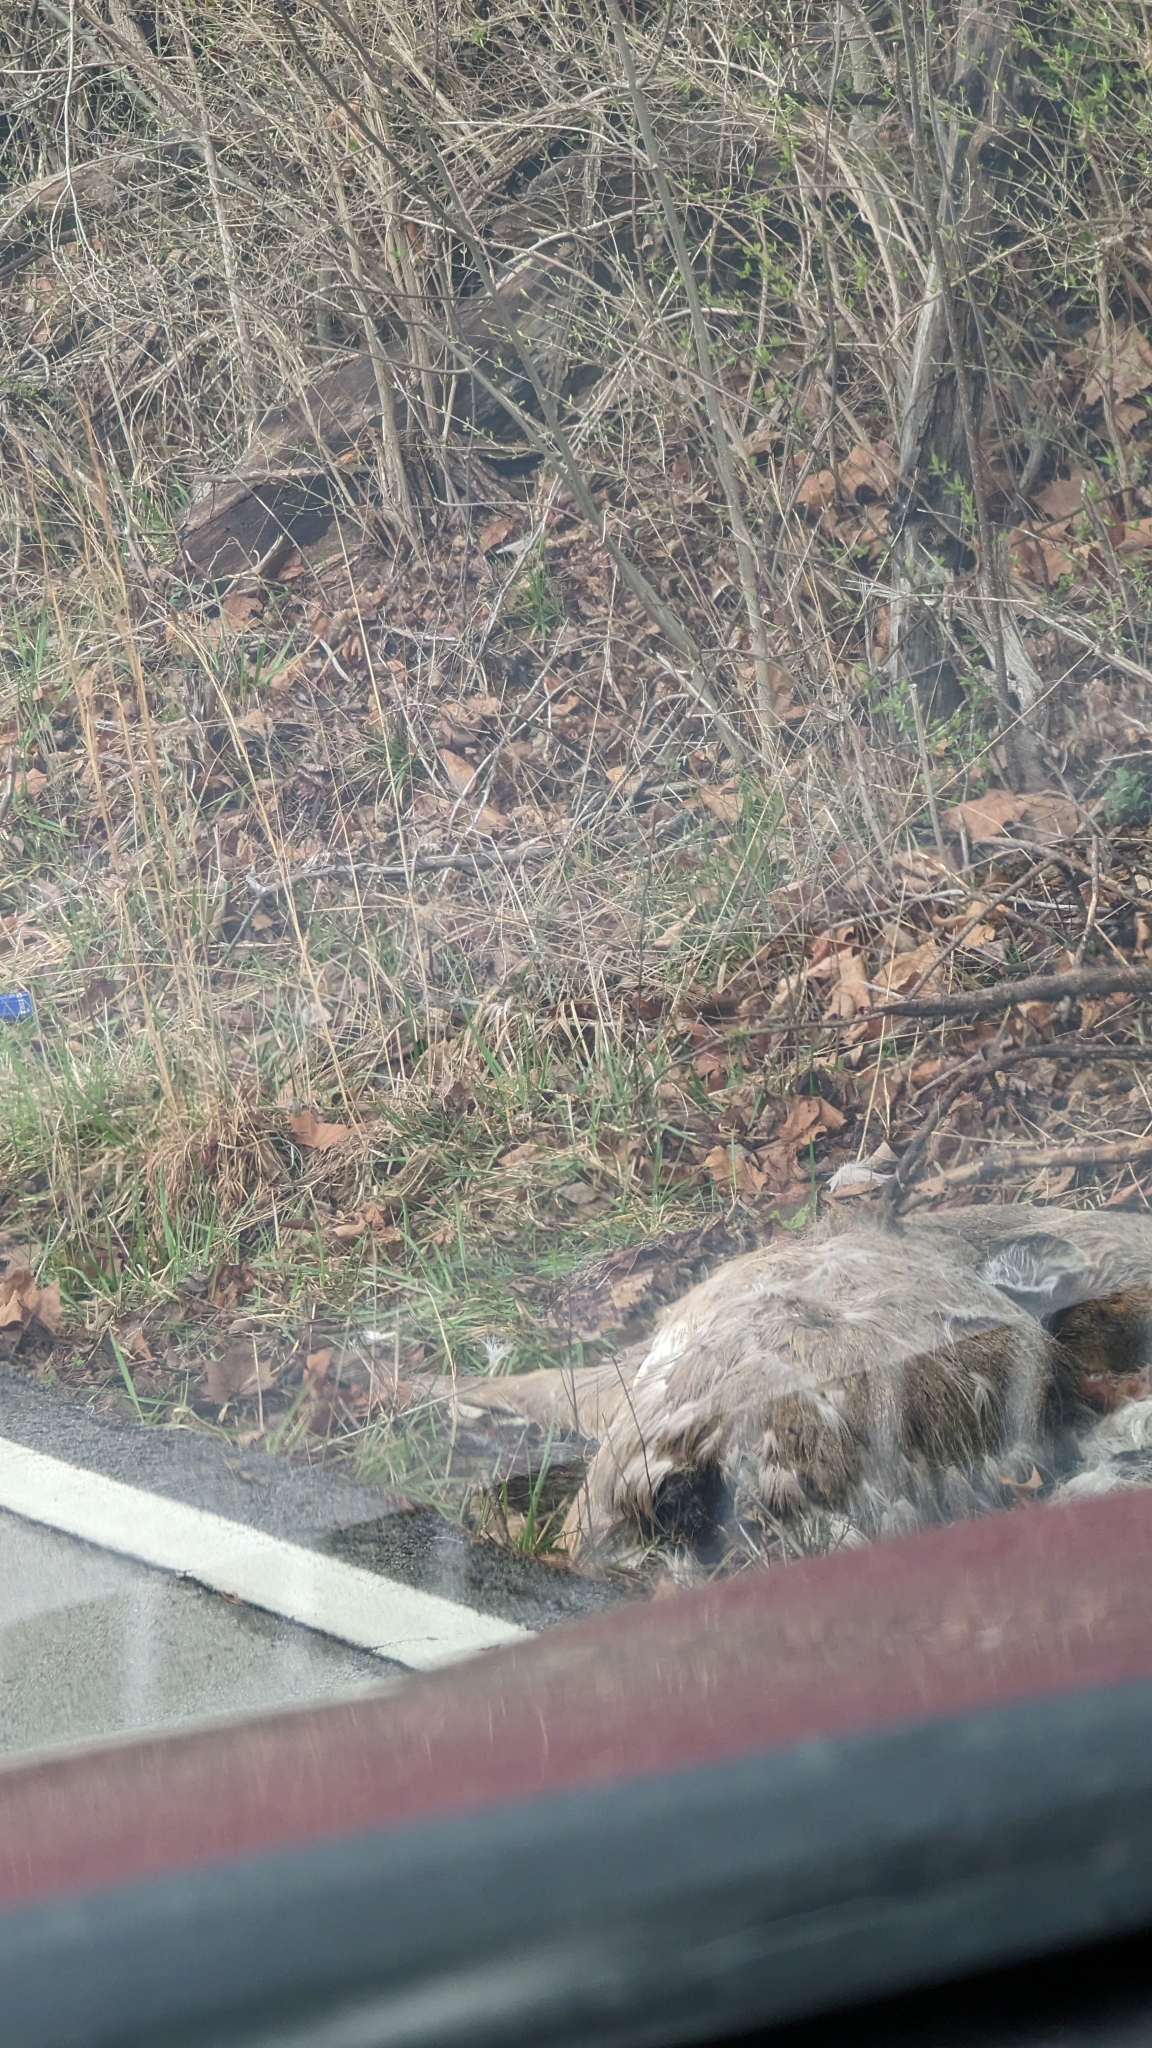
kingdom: Animalia
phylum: Chordata
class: Mammalia
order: Artiodactyla
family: Cervidae
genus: Odocoileus
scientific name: Odocoileus virginianus
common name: White-tailed deer
